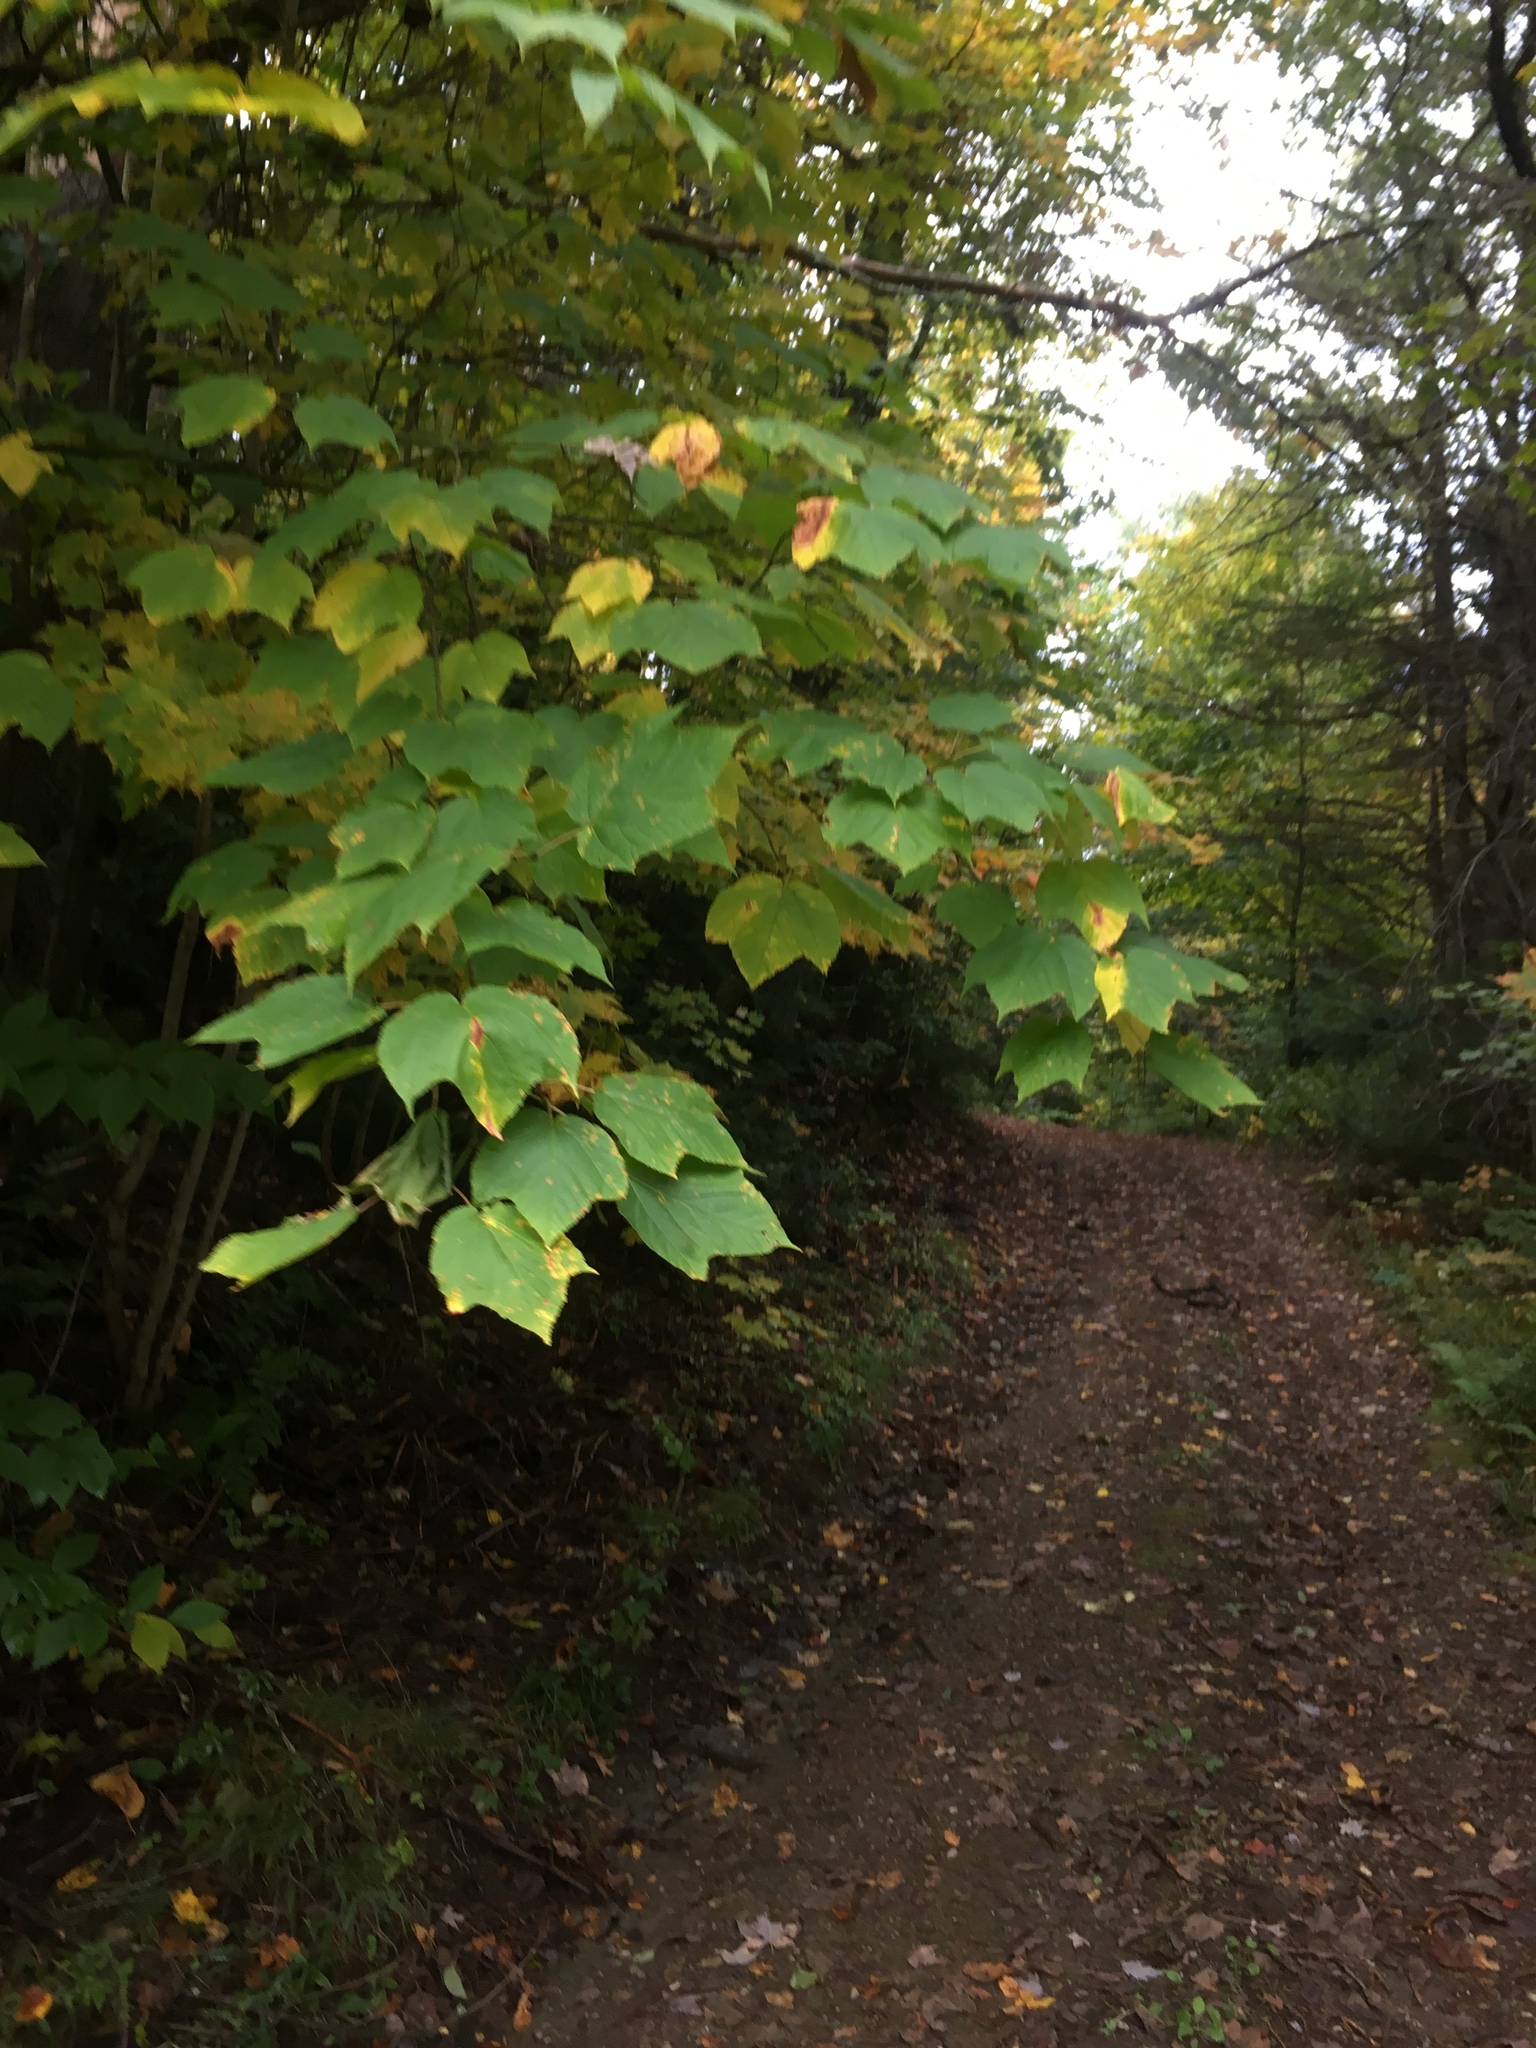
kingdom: Plantae
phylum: Tracheophyta
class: Magnoliopsida
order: Sapindales
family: Sapindaceae
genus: Acer
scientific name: Acer pensylvanicum
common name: Moosewood
